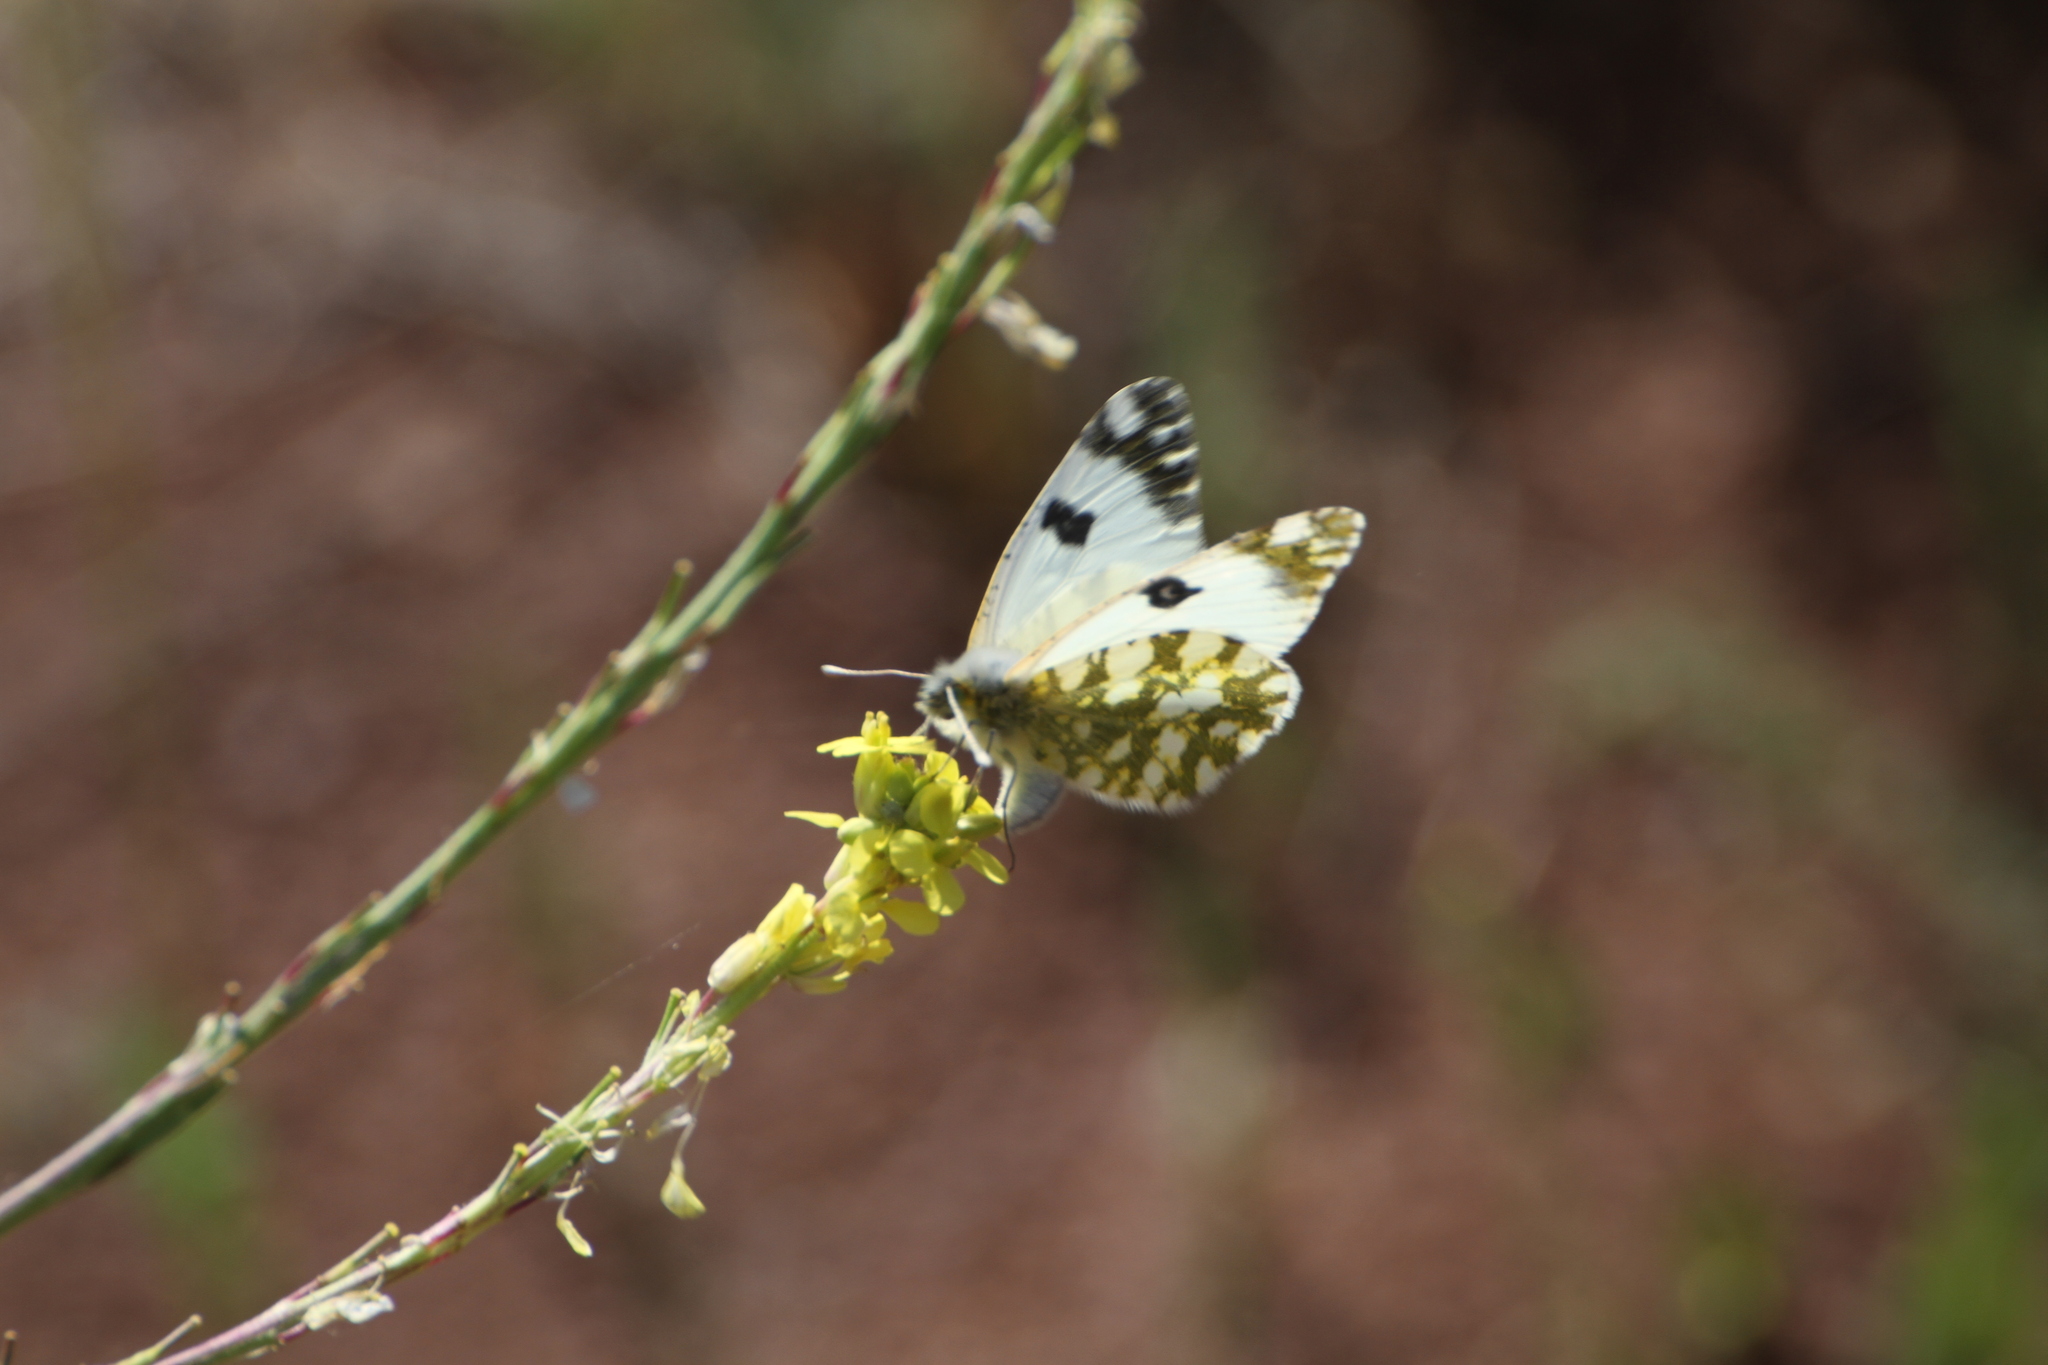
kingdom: Animalia
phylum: Arthropoda
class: Insecta
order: Lepidoptera
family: Pieridae
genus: Euchloe
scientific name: Euchloe crameri
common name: Western dappled white
